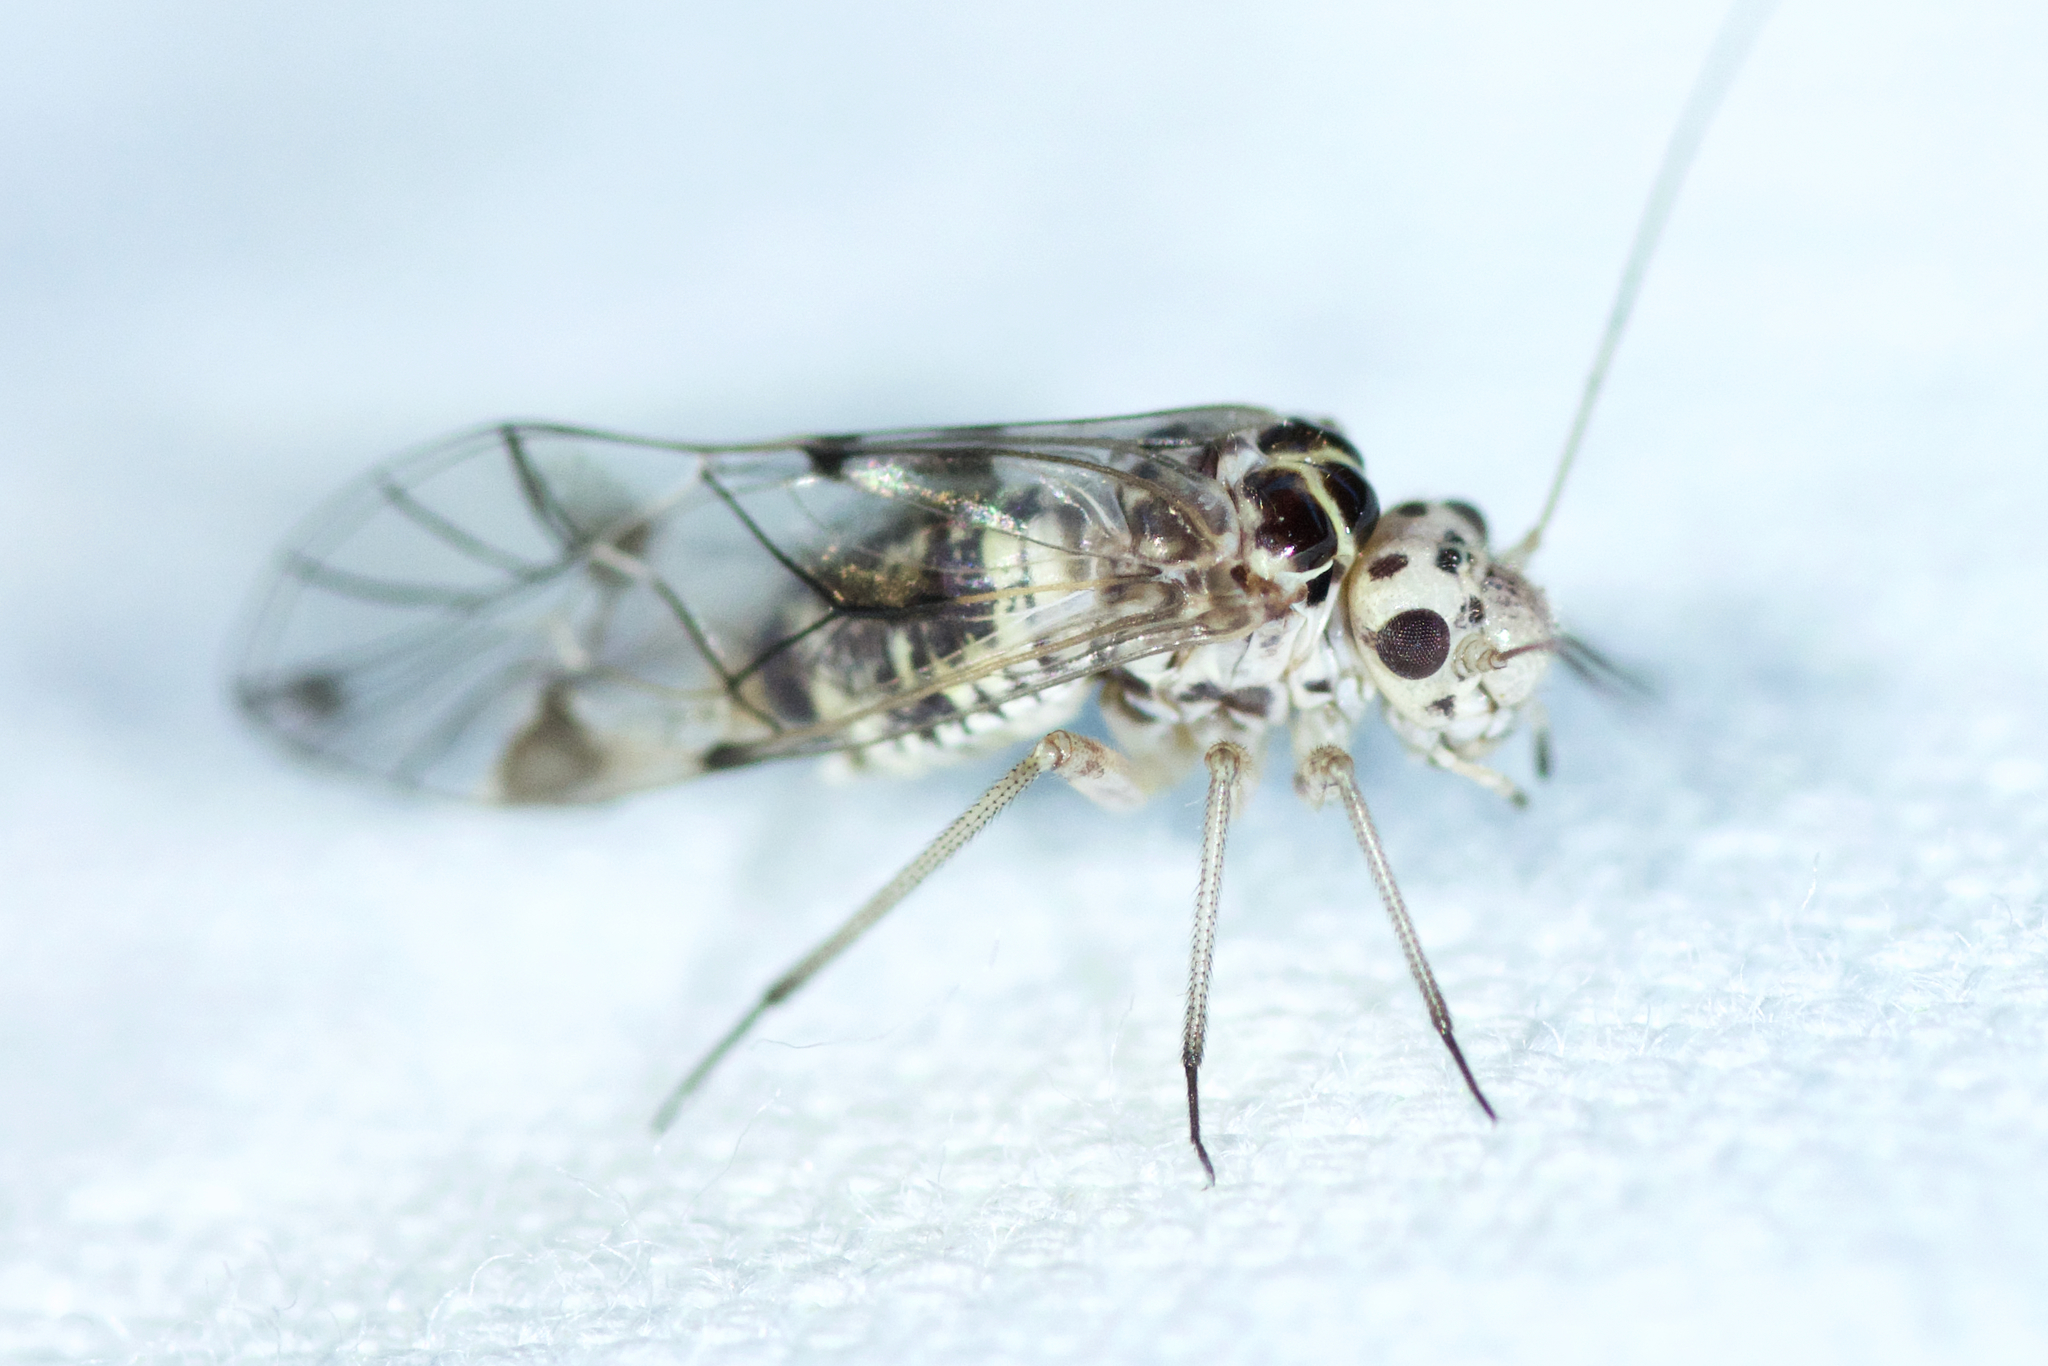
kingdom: Animalia
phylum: Arthropoda
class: Insecta
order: Psocodea
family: Psocidae
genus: Metylophorus
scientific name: Metylophorus novaescotiae
